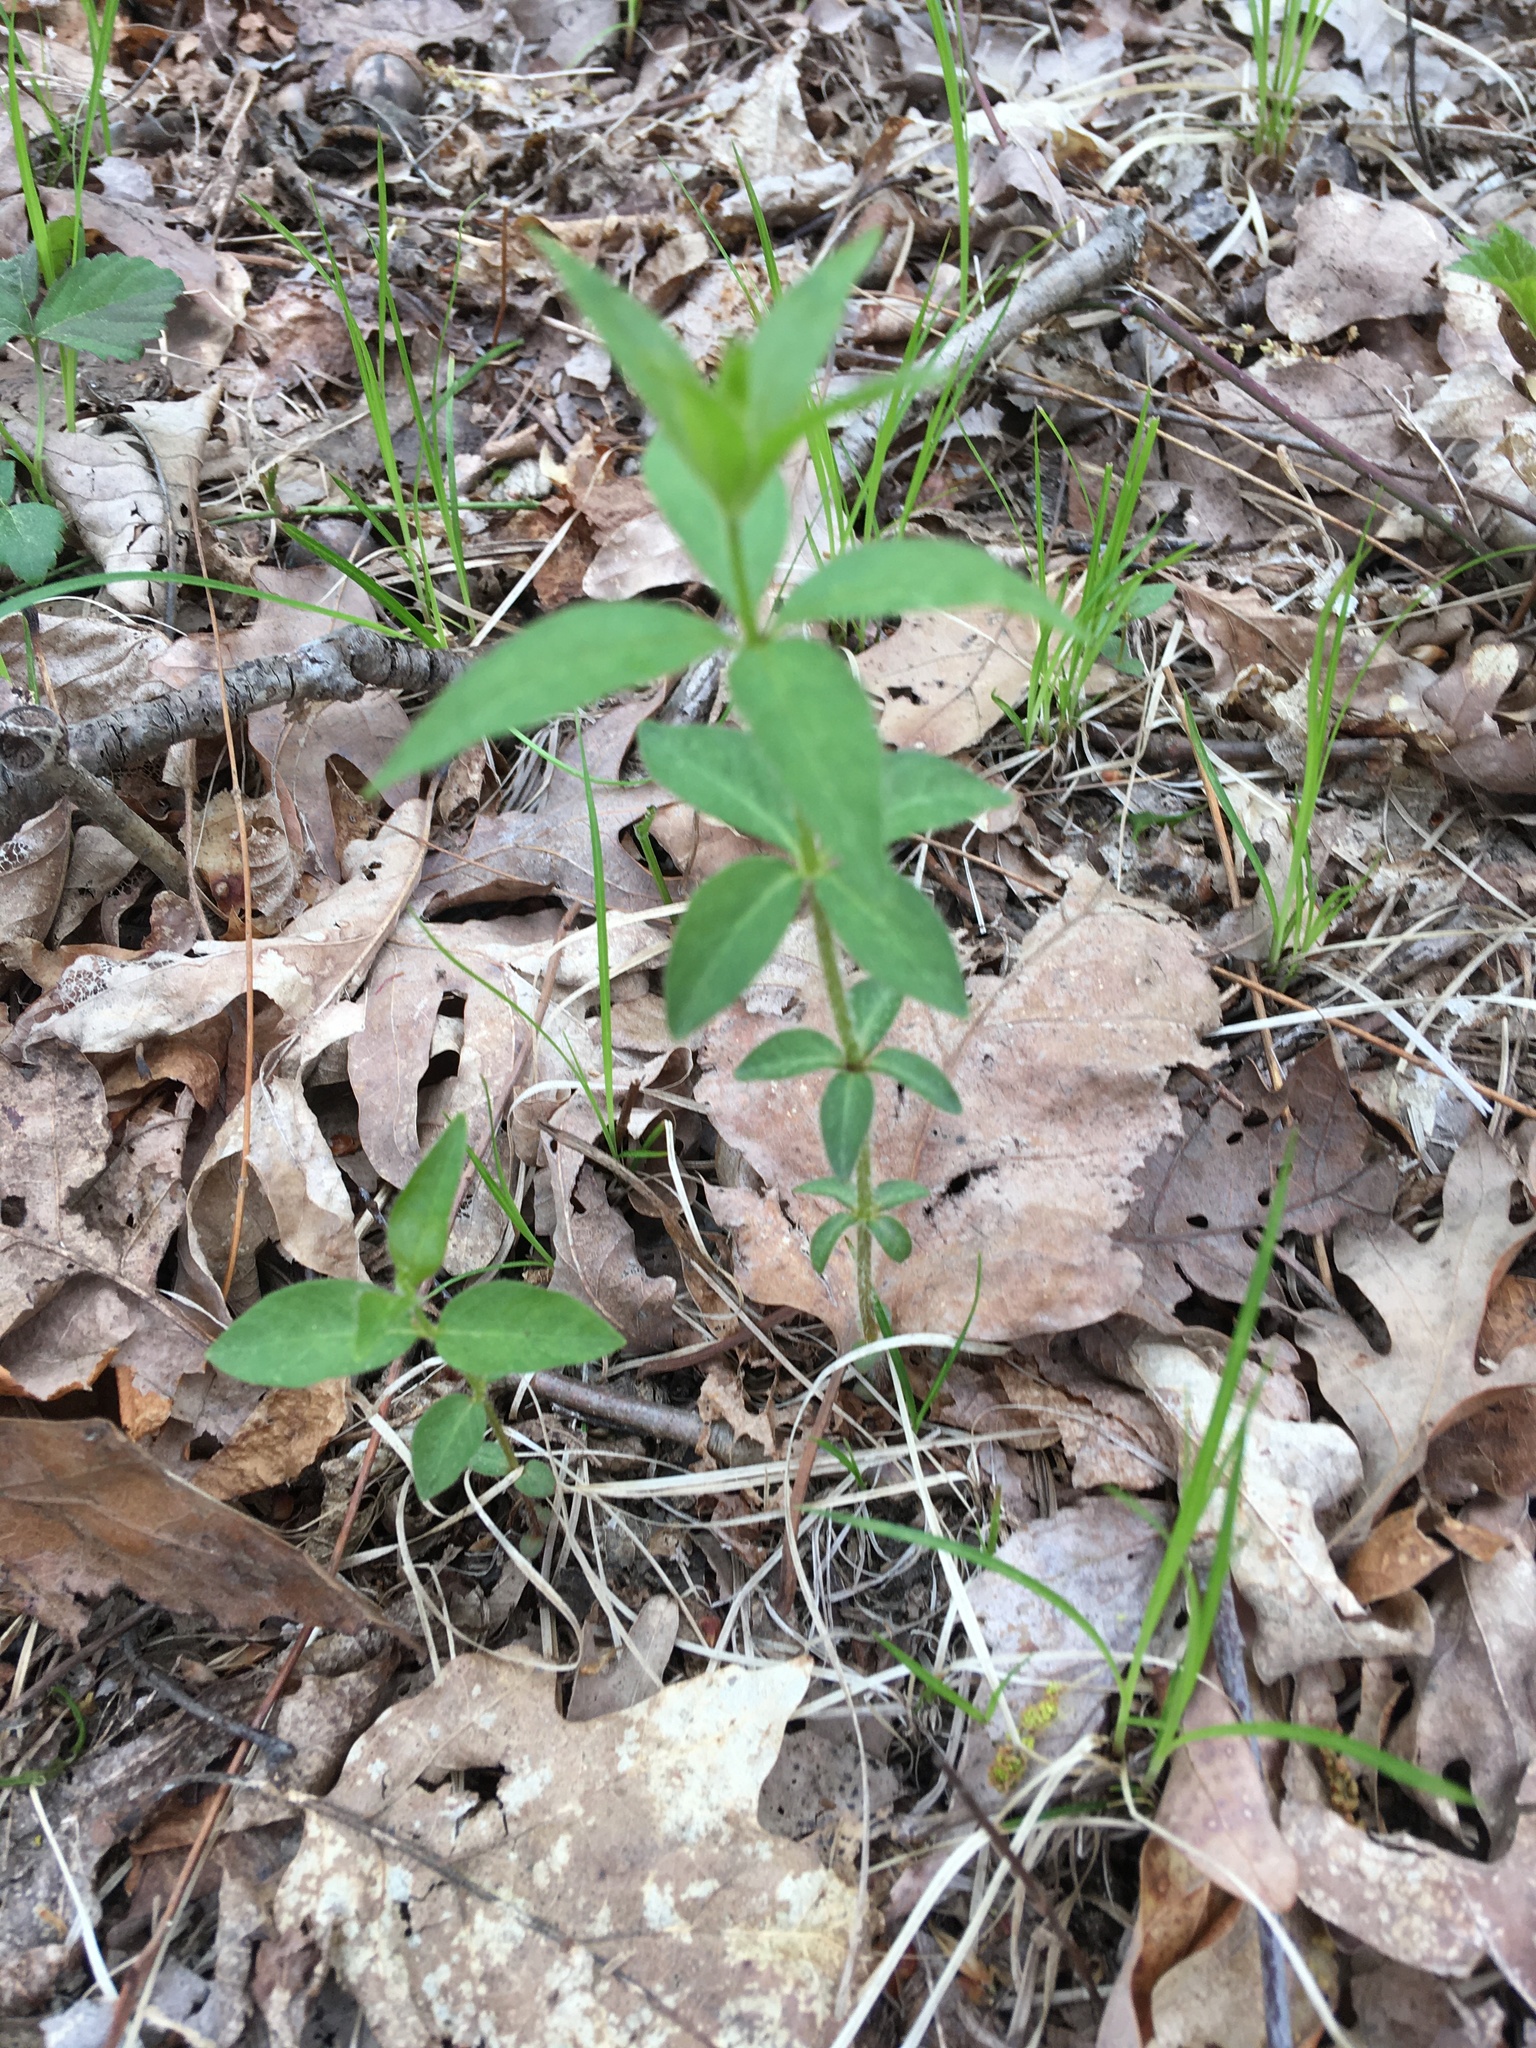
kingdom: Plantae
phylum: Tracheophyta
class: Magnoliopsida
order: Ericales
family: Primulaceae
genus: Lysimachia
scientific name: Lysimachia quadrifolia
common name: Whorled loosestrife
